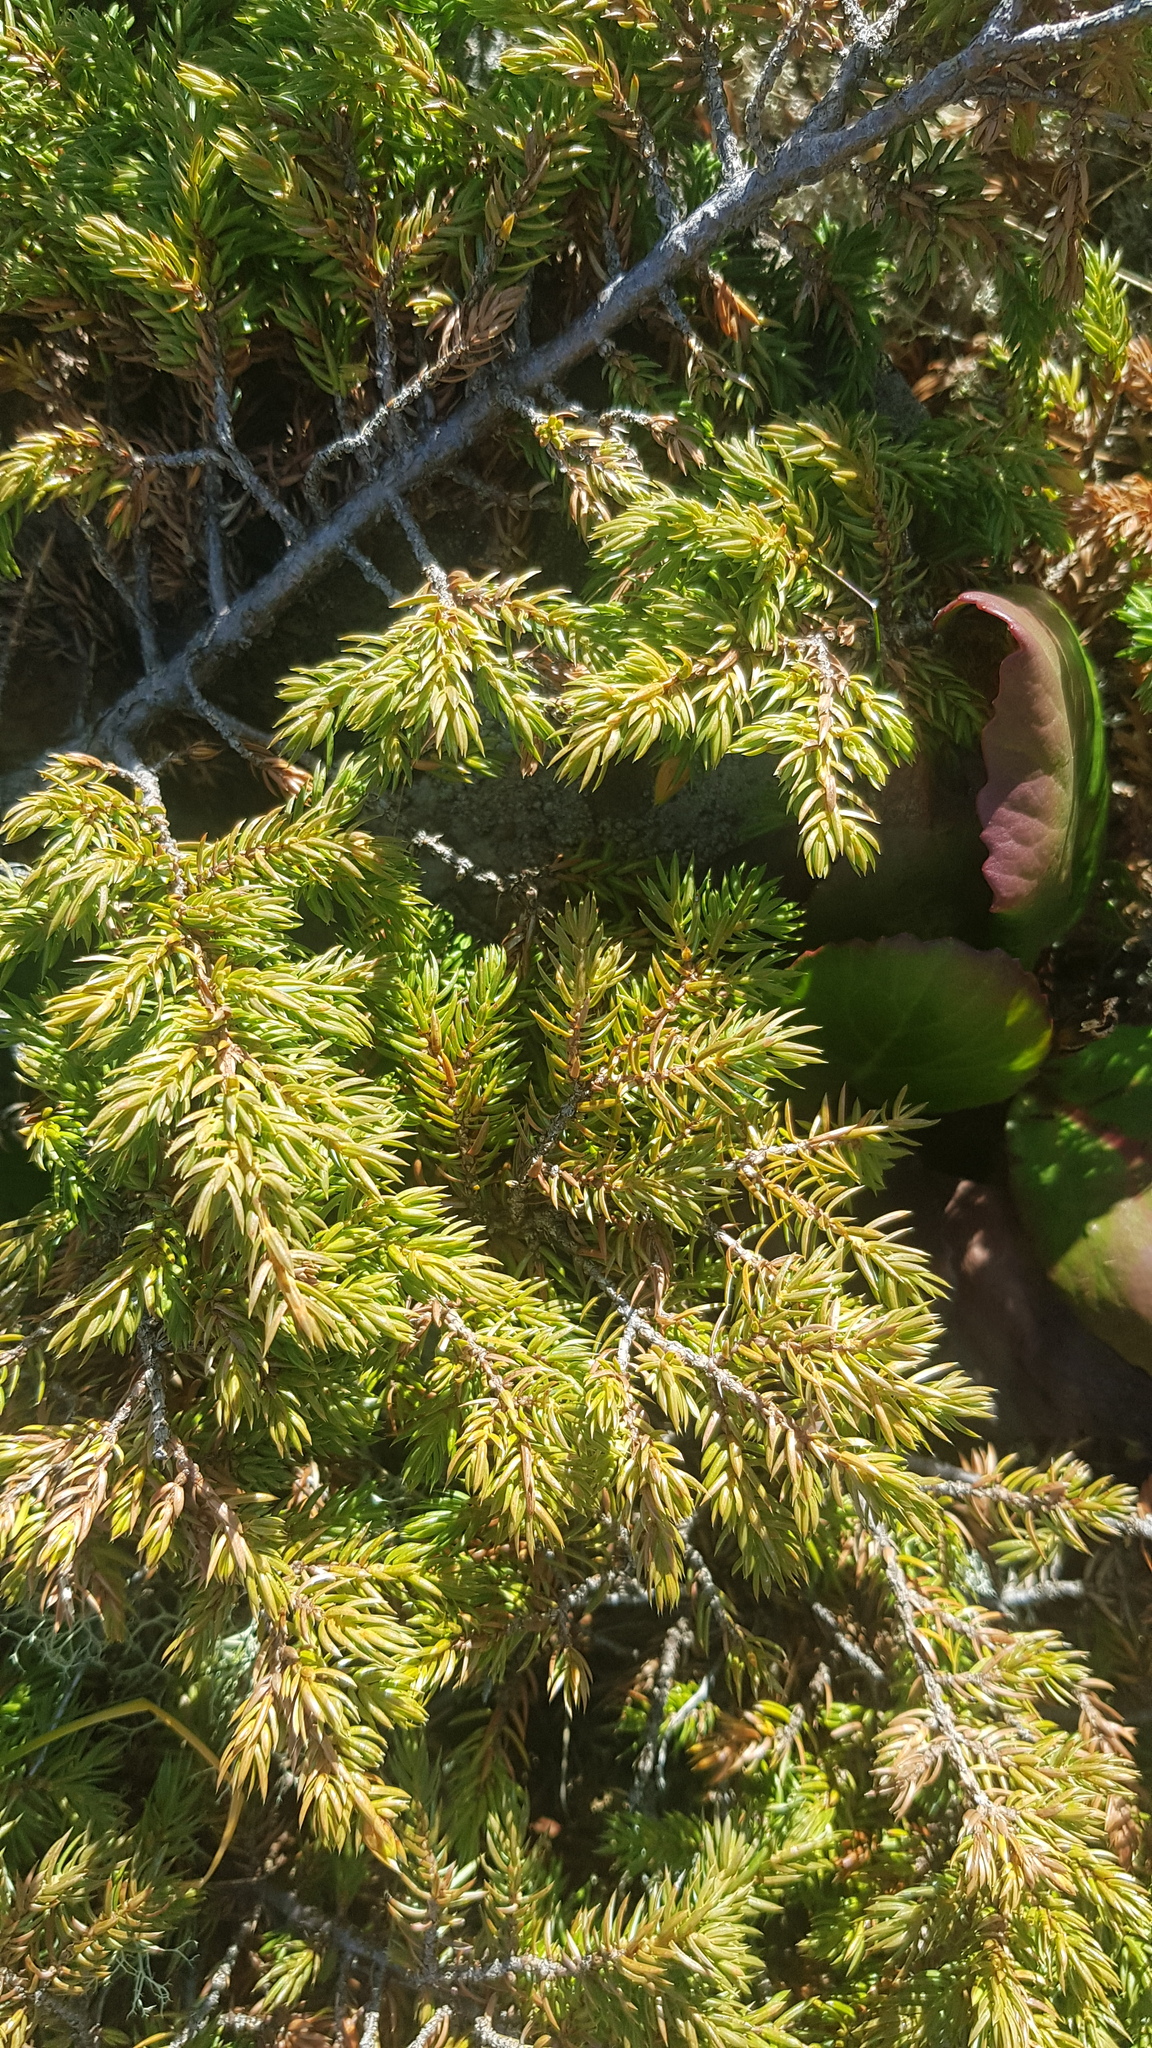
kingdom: Plantae
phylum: Tracheophyta
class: Pinopsida
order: Pinales
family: Cupressaceae
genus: Juniperus
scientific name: Juniperus communis
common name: Common juniper
